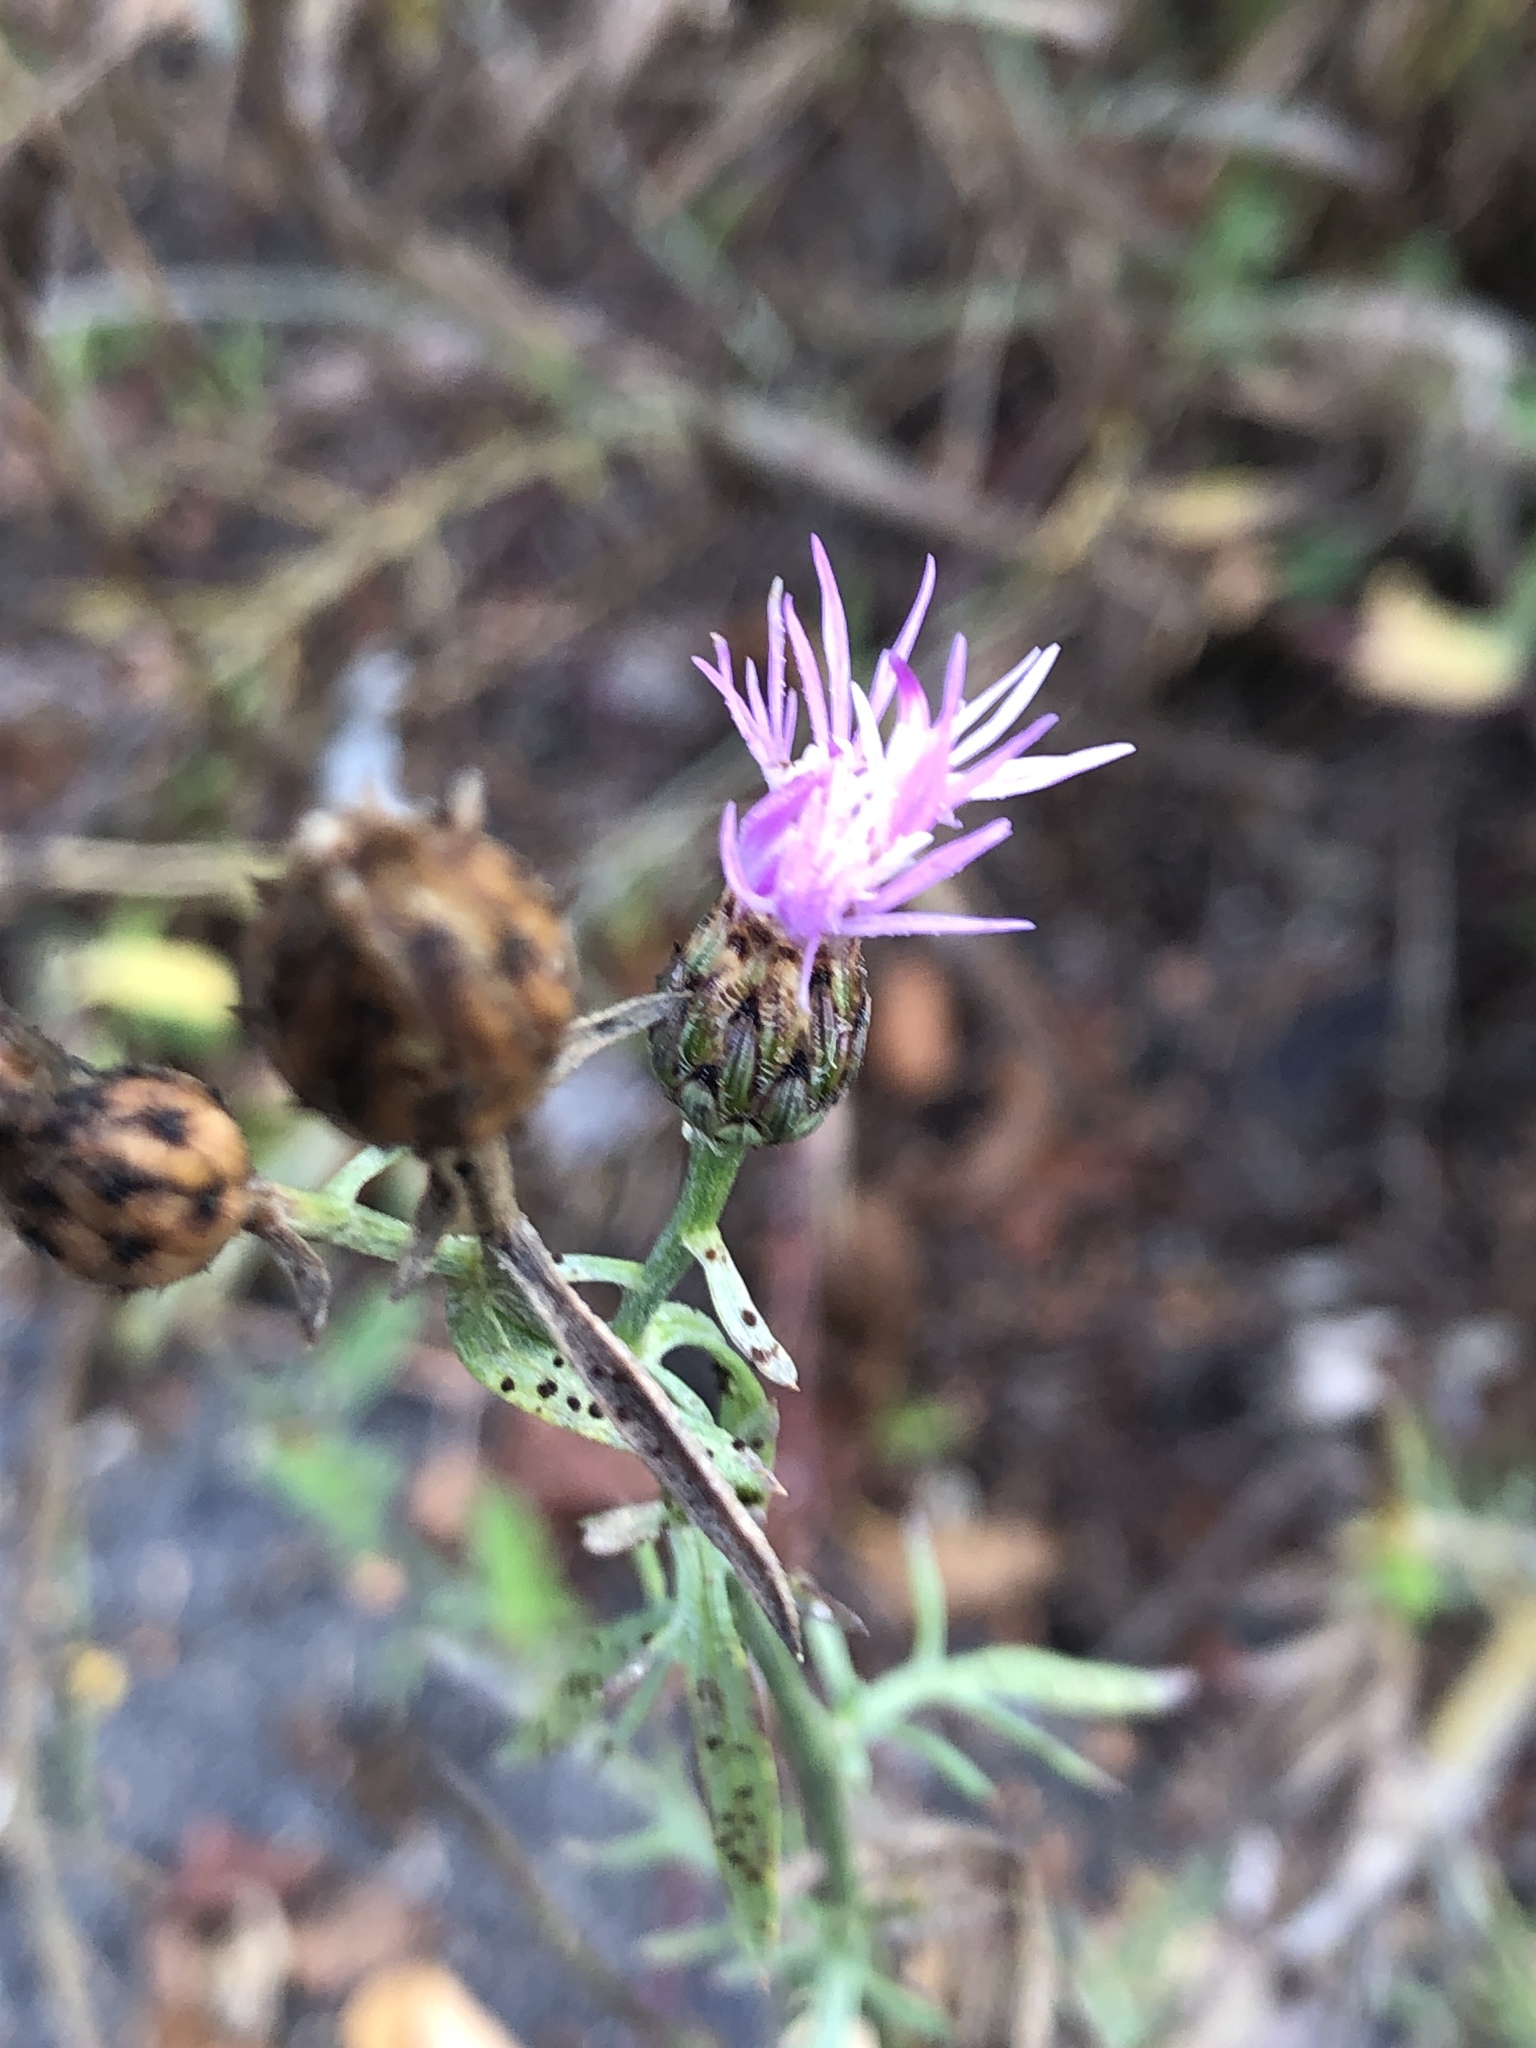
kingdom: Plantae
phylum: Tracheophyta
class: Magnoliopsida
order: Asterales
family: Asteraceae
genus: Centaurea
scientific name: Centaurea stoebe
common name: Spotted knapweed
